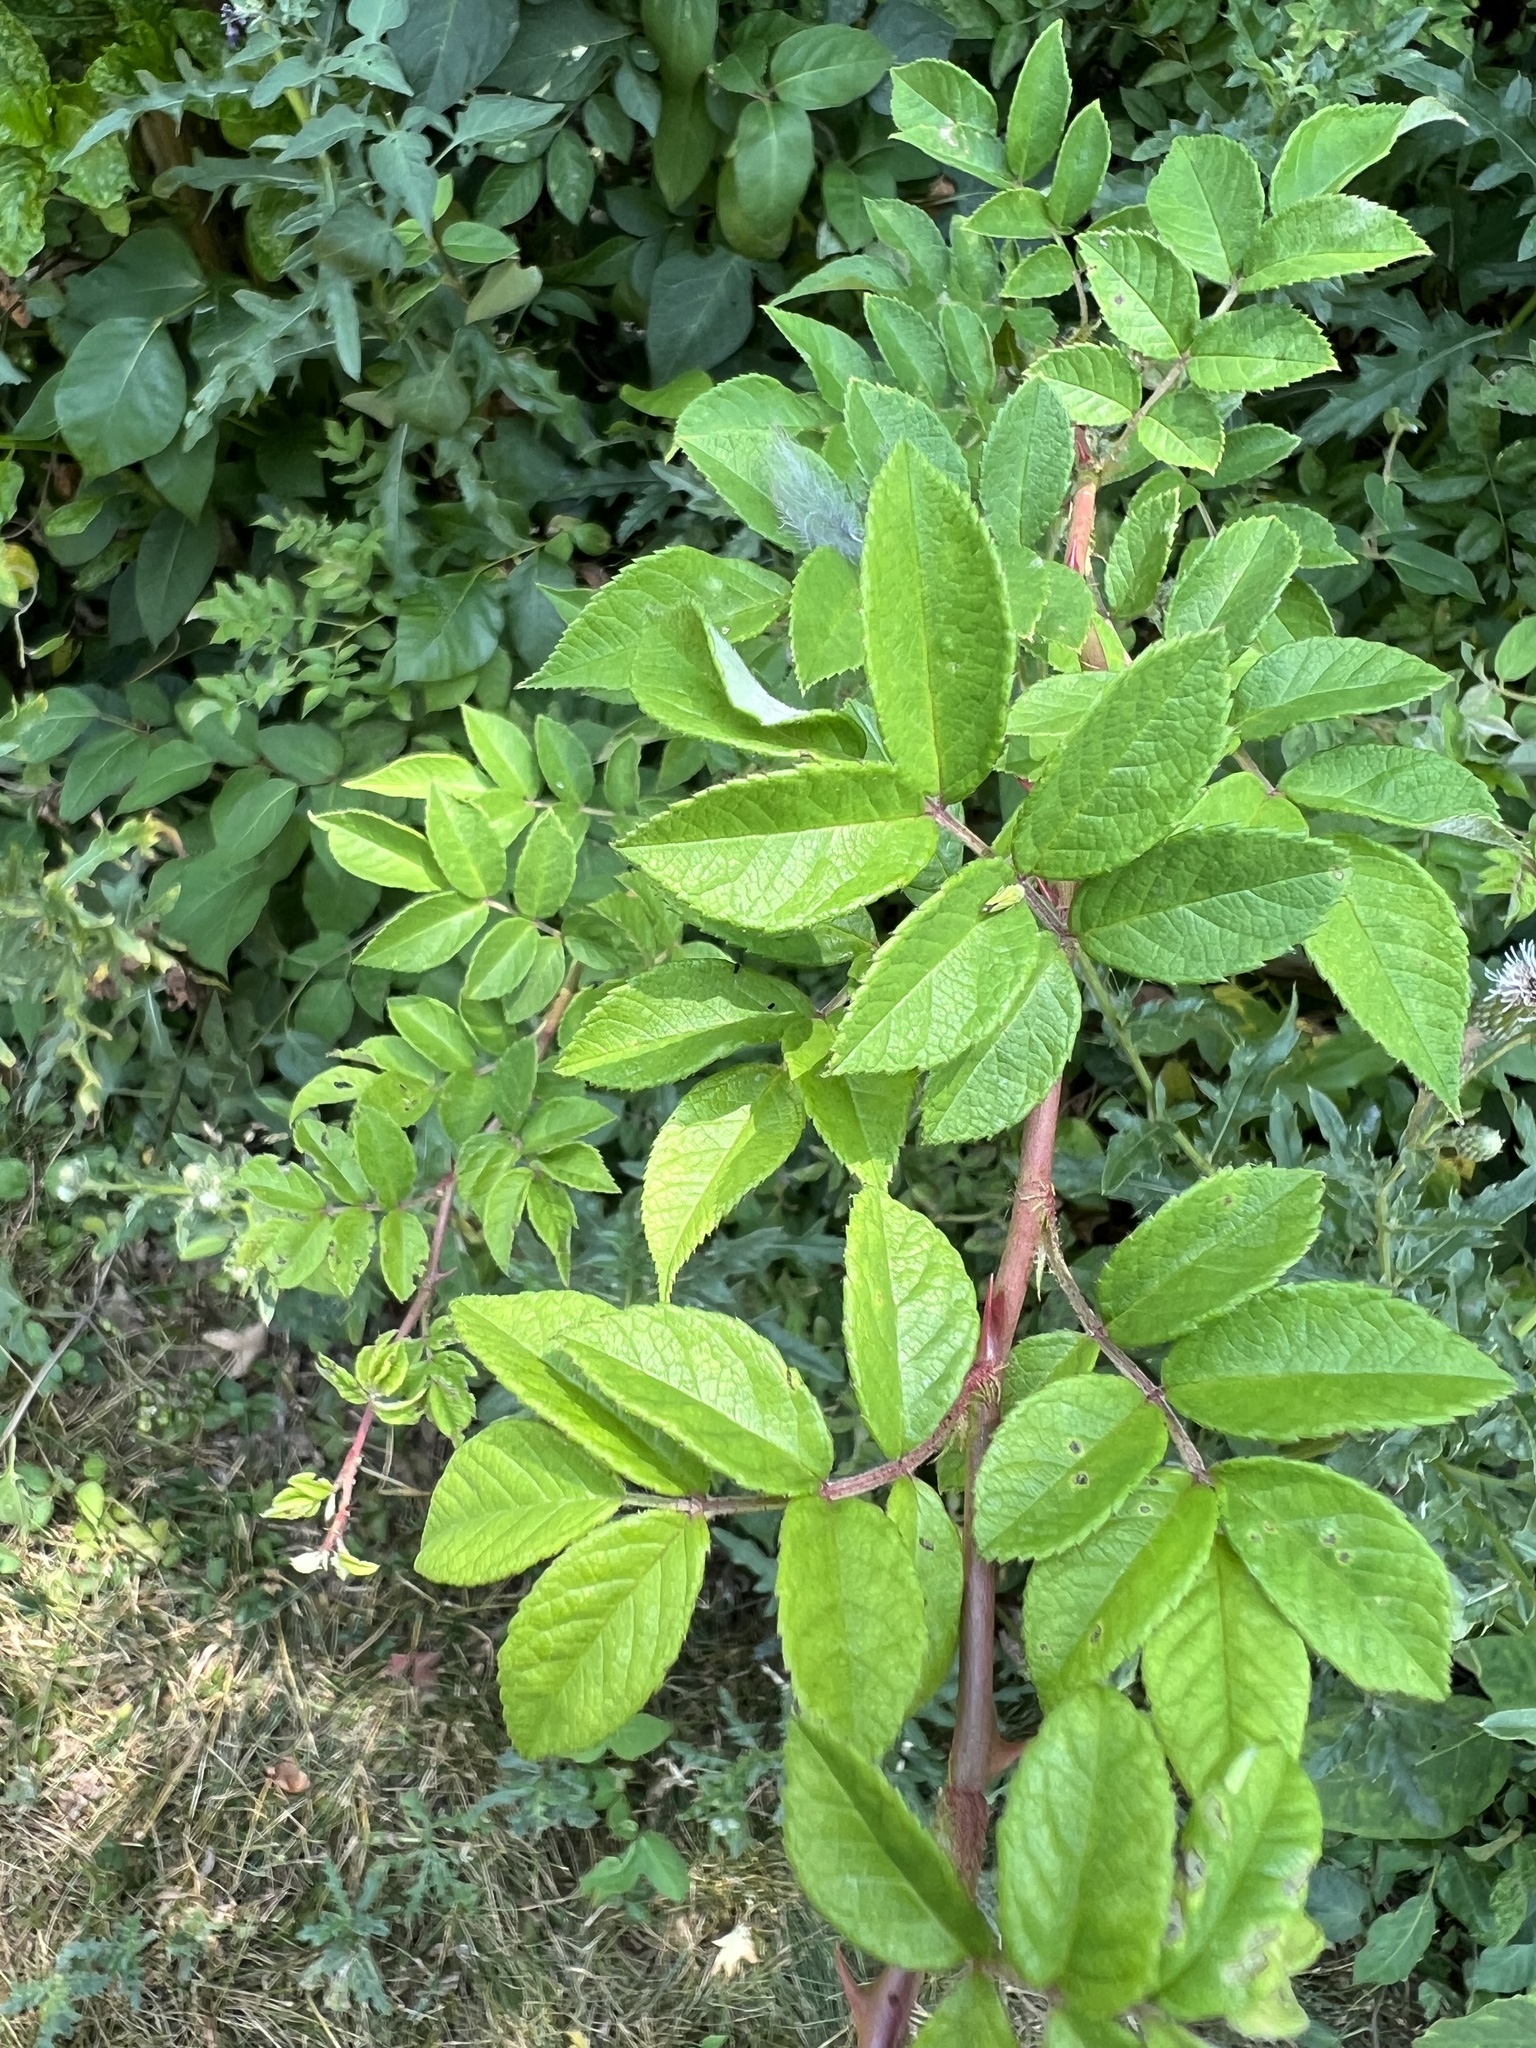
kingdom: Plantae
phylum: Tracheophyta
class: Magnoliopsida
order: Rosales
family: Rosaceae
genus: Rosa
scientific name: Rosa multiflora
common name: Multiflora rose
